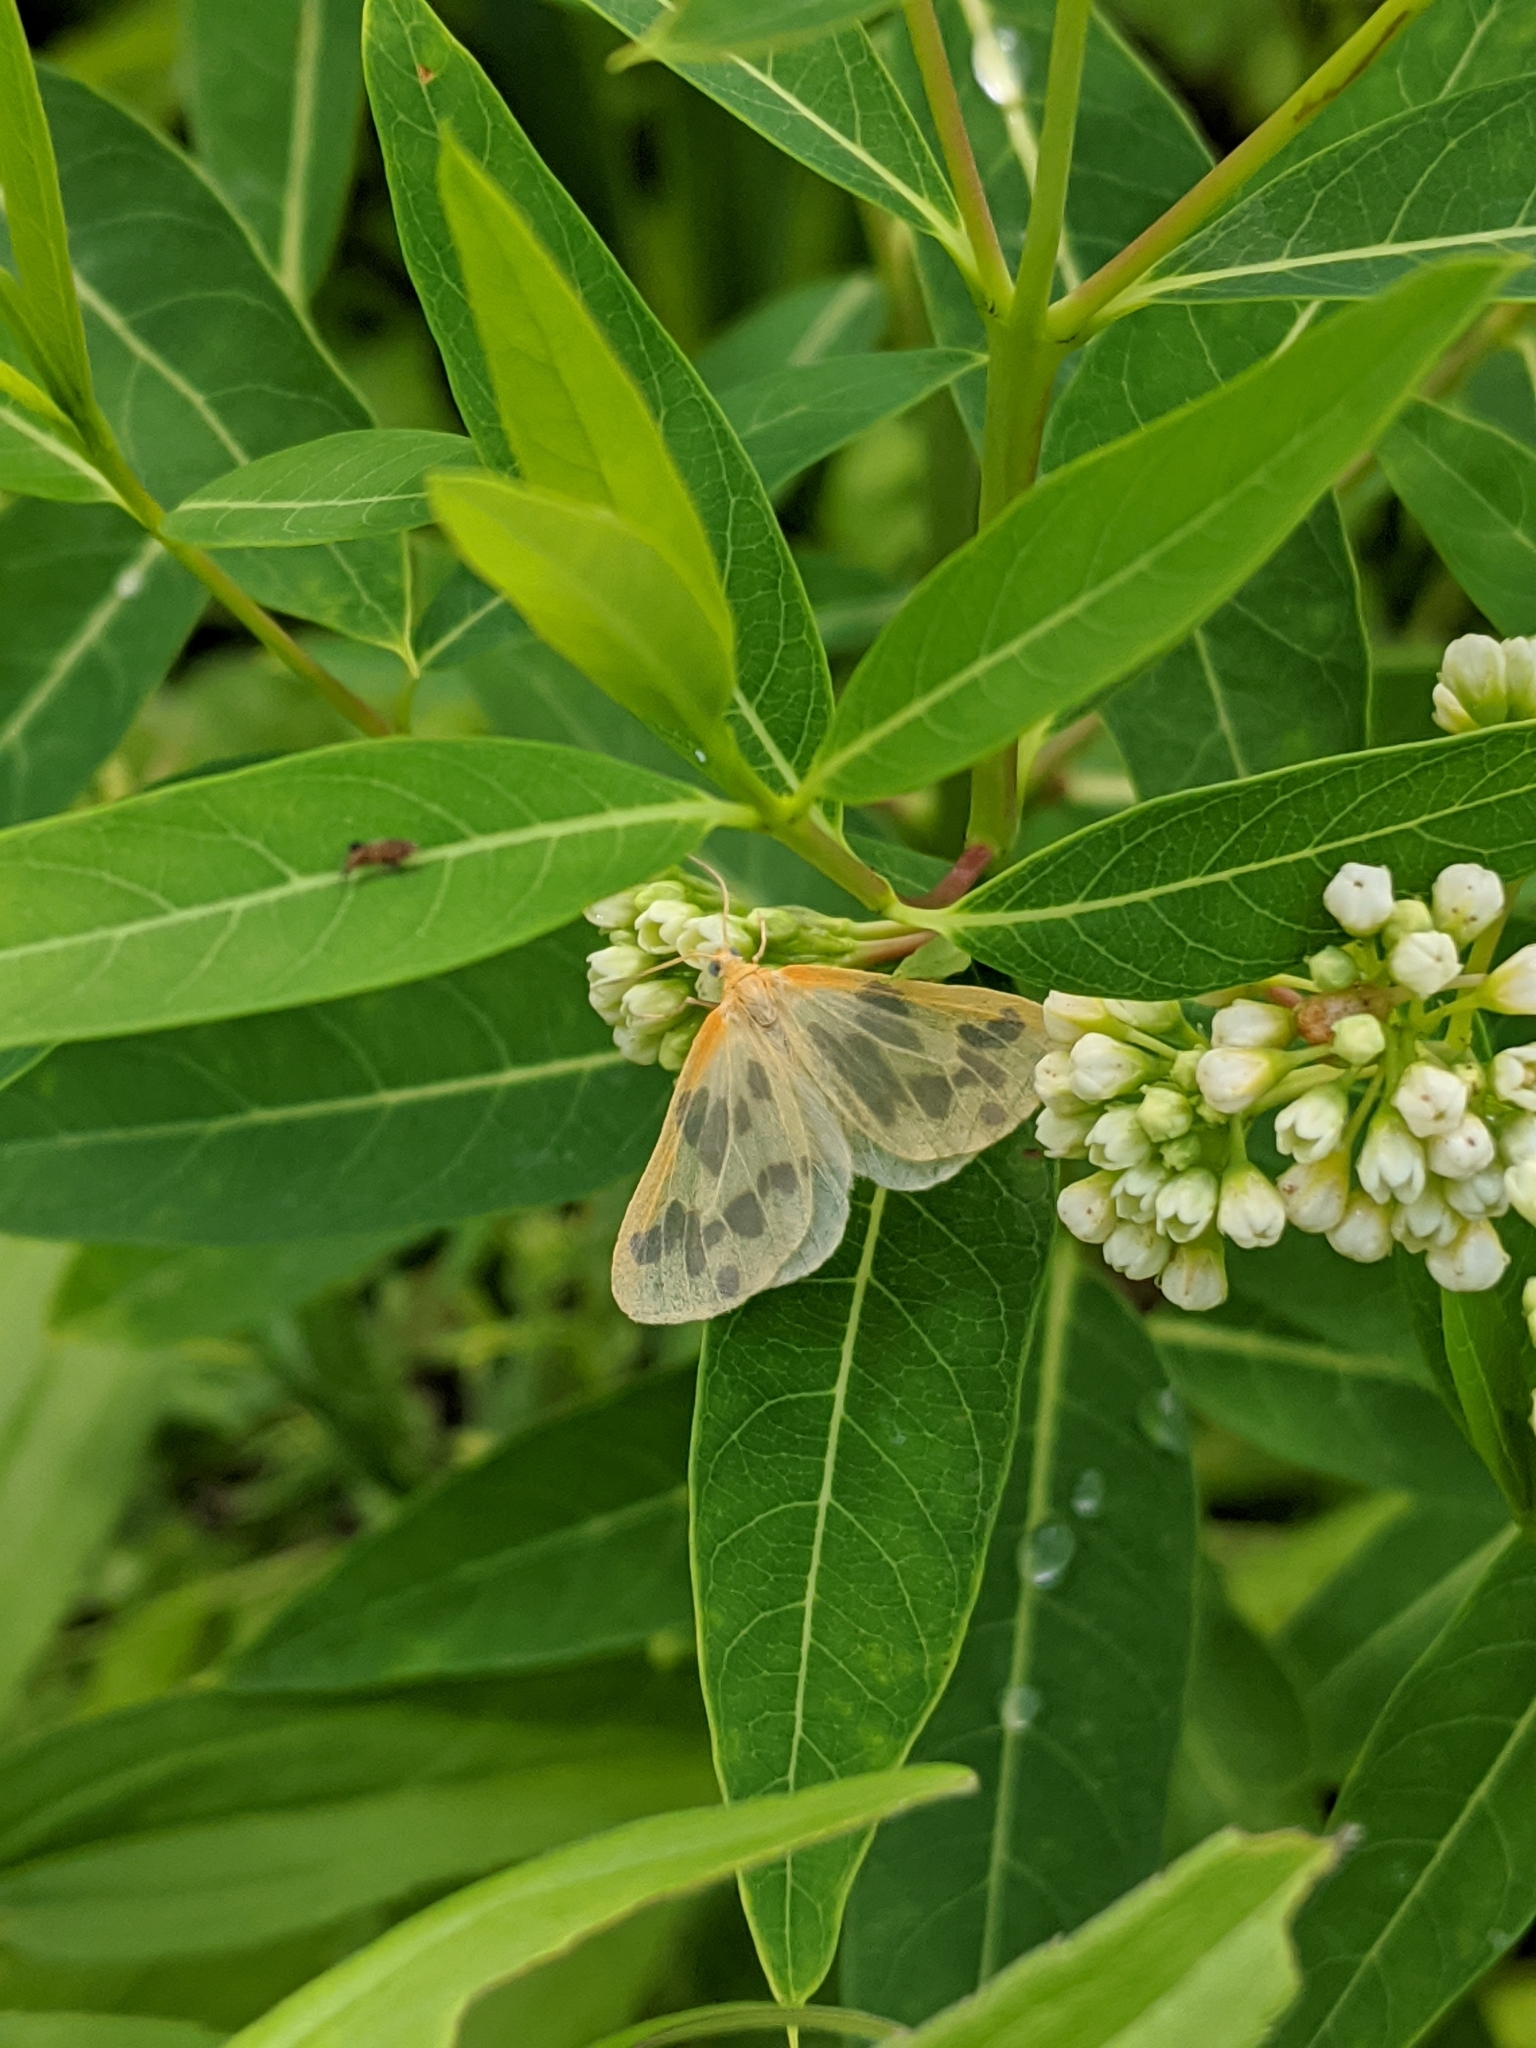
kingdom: Animalia
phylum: Arthropoda
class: Insecta
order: Lepidoptera
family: Geometridae
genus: Eubaphe
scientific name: Eubaphe mendica
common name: Beggar
